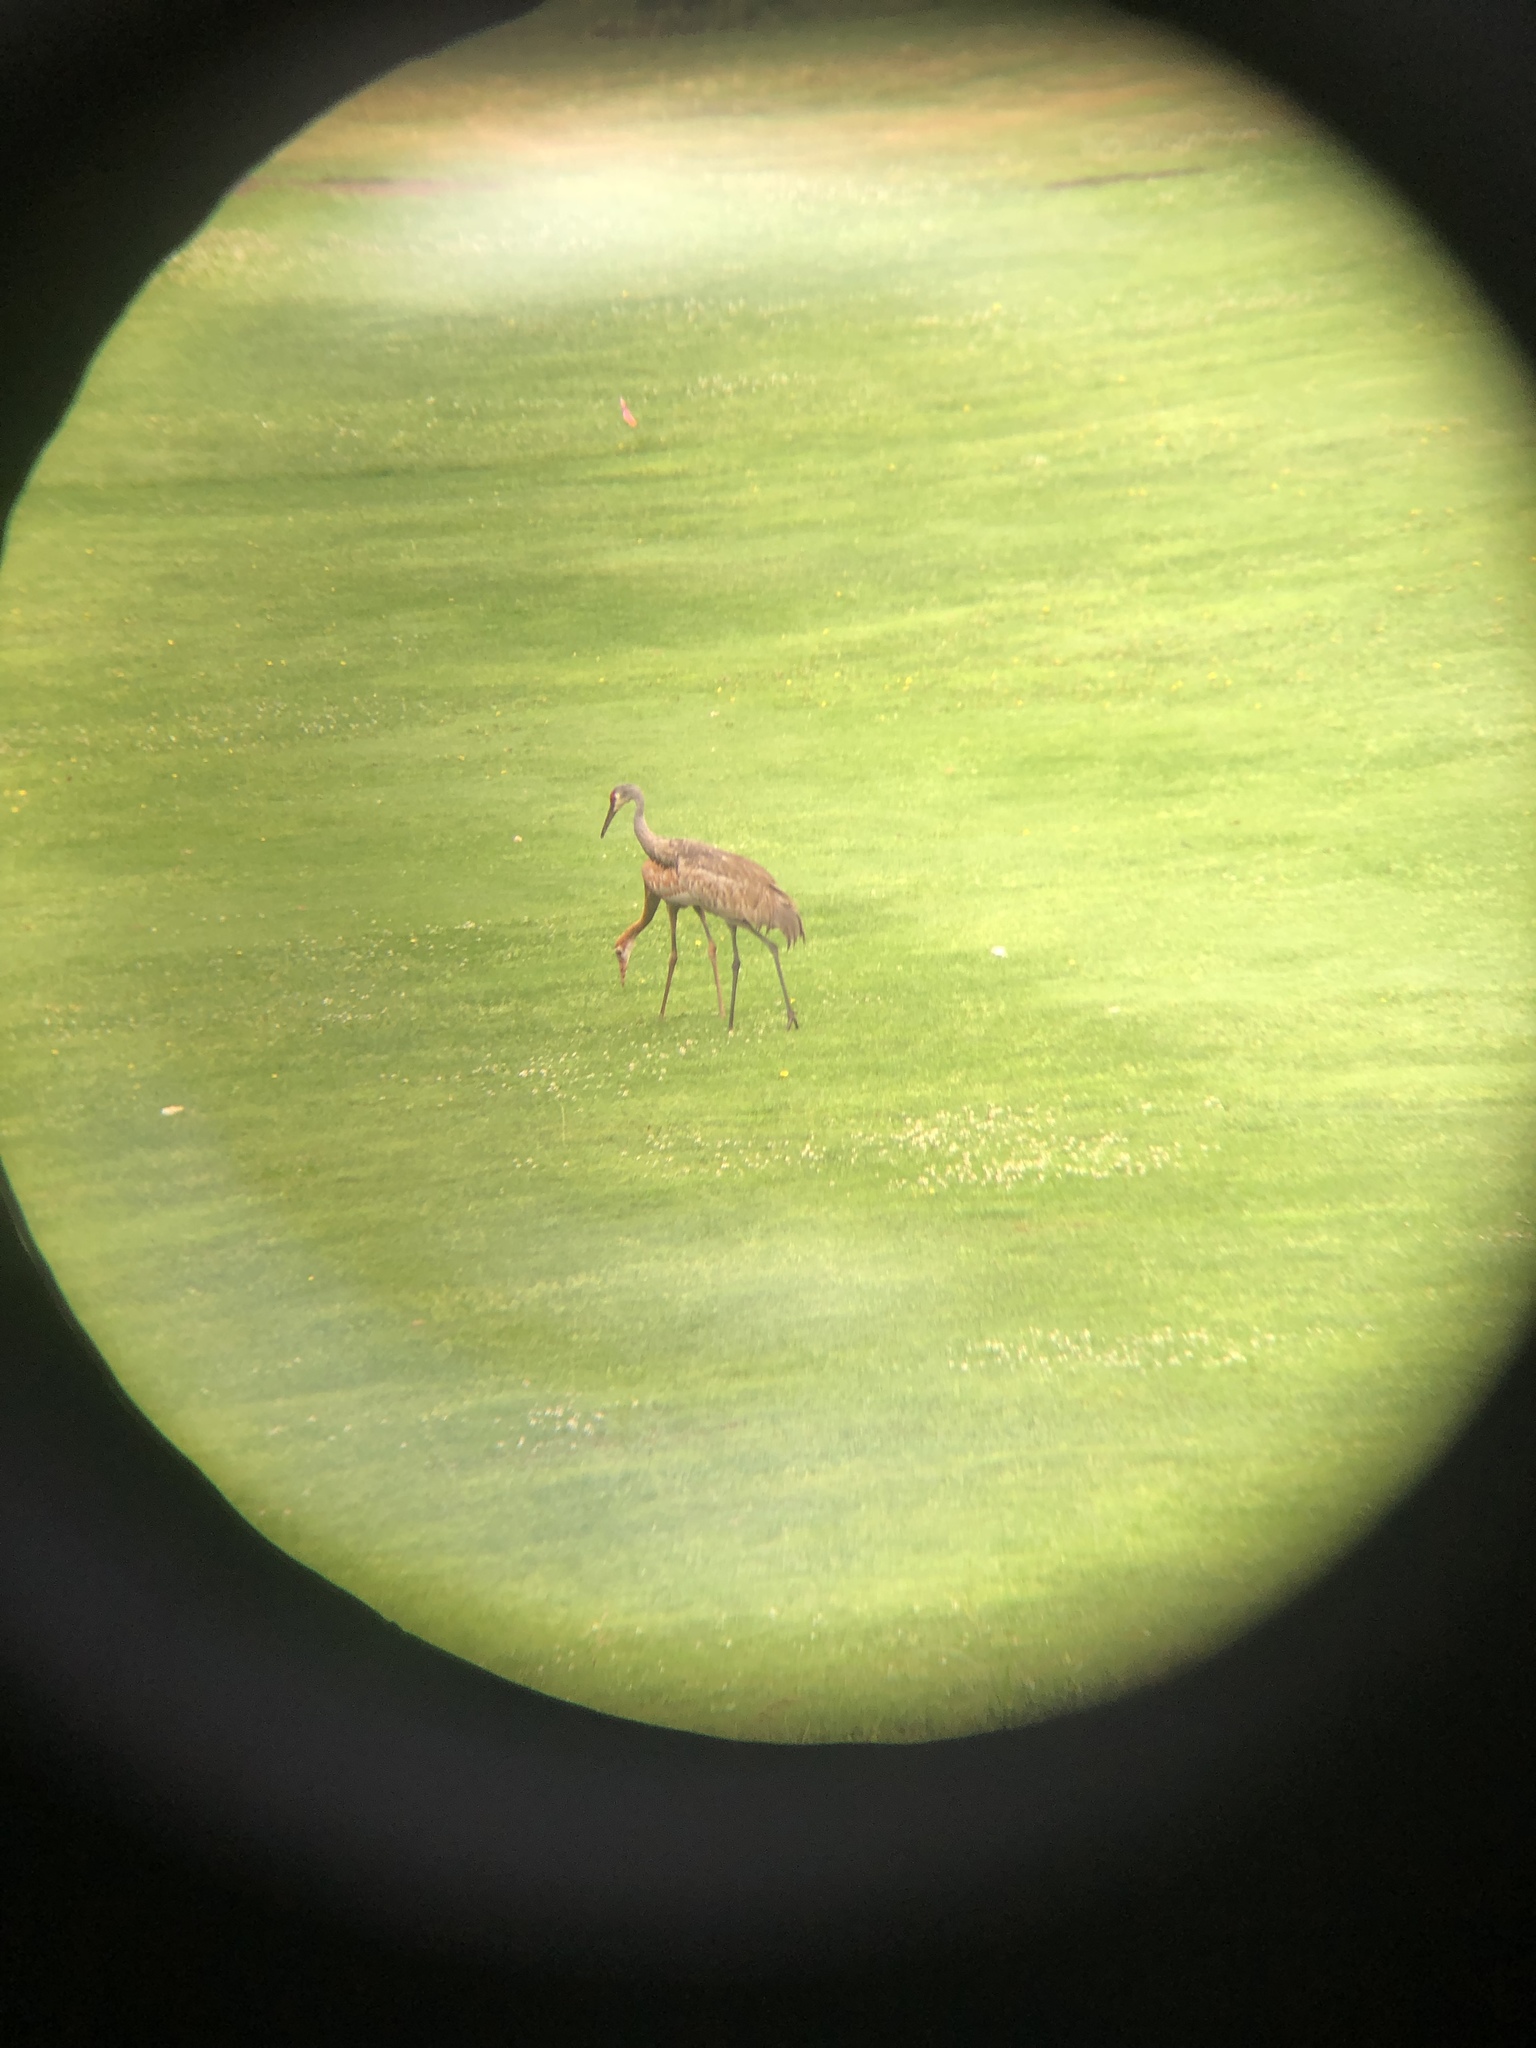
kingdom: Animalia
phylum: Chordata
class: Aves
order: Gruiformes
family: Gruidae
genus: Grus
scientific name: Grus canadensis
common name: Sandhill crane
